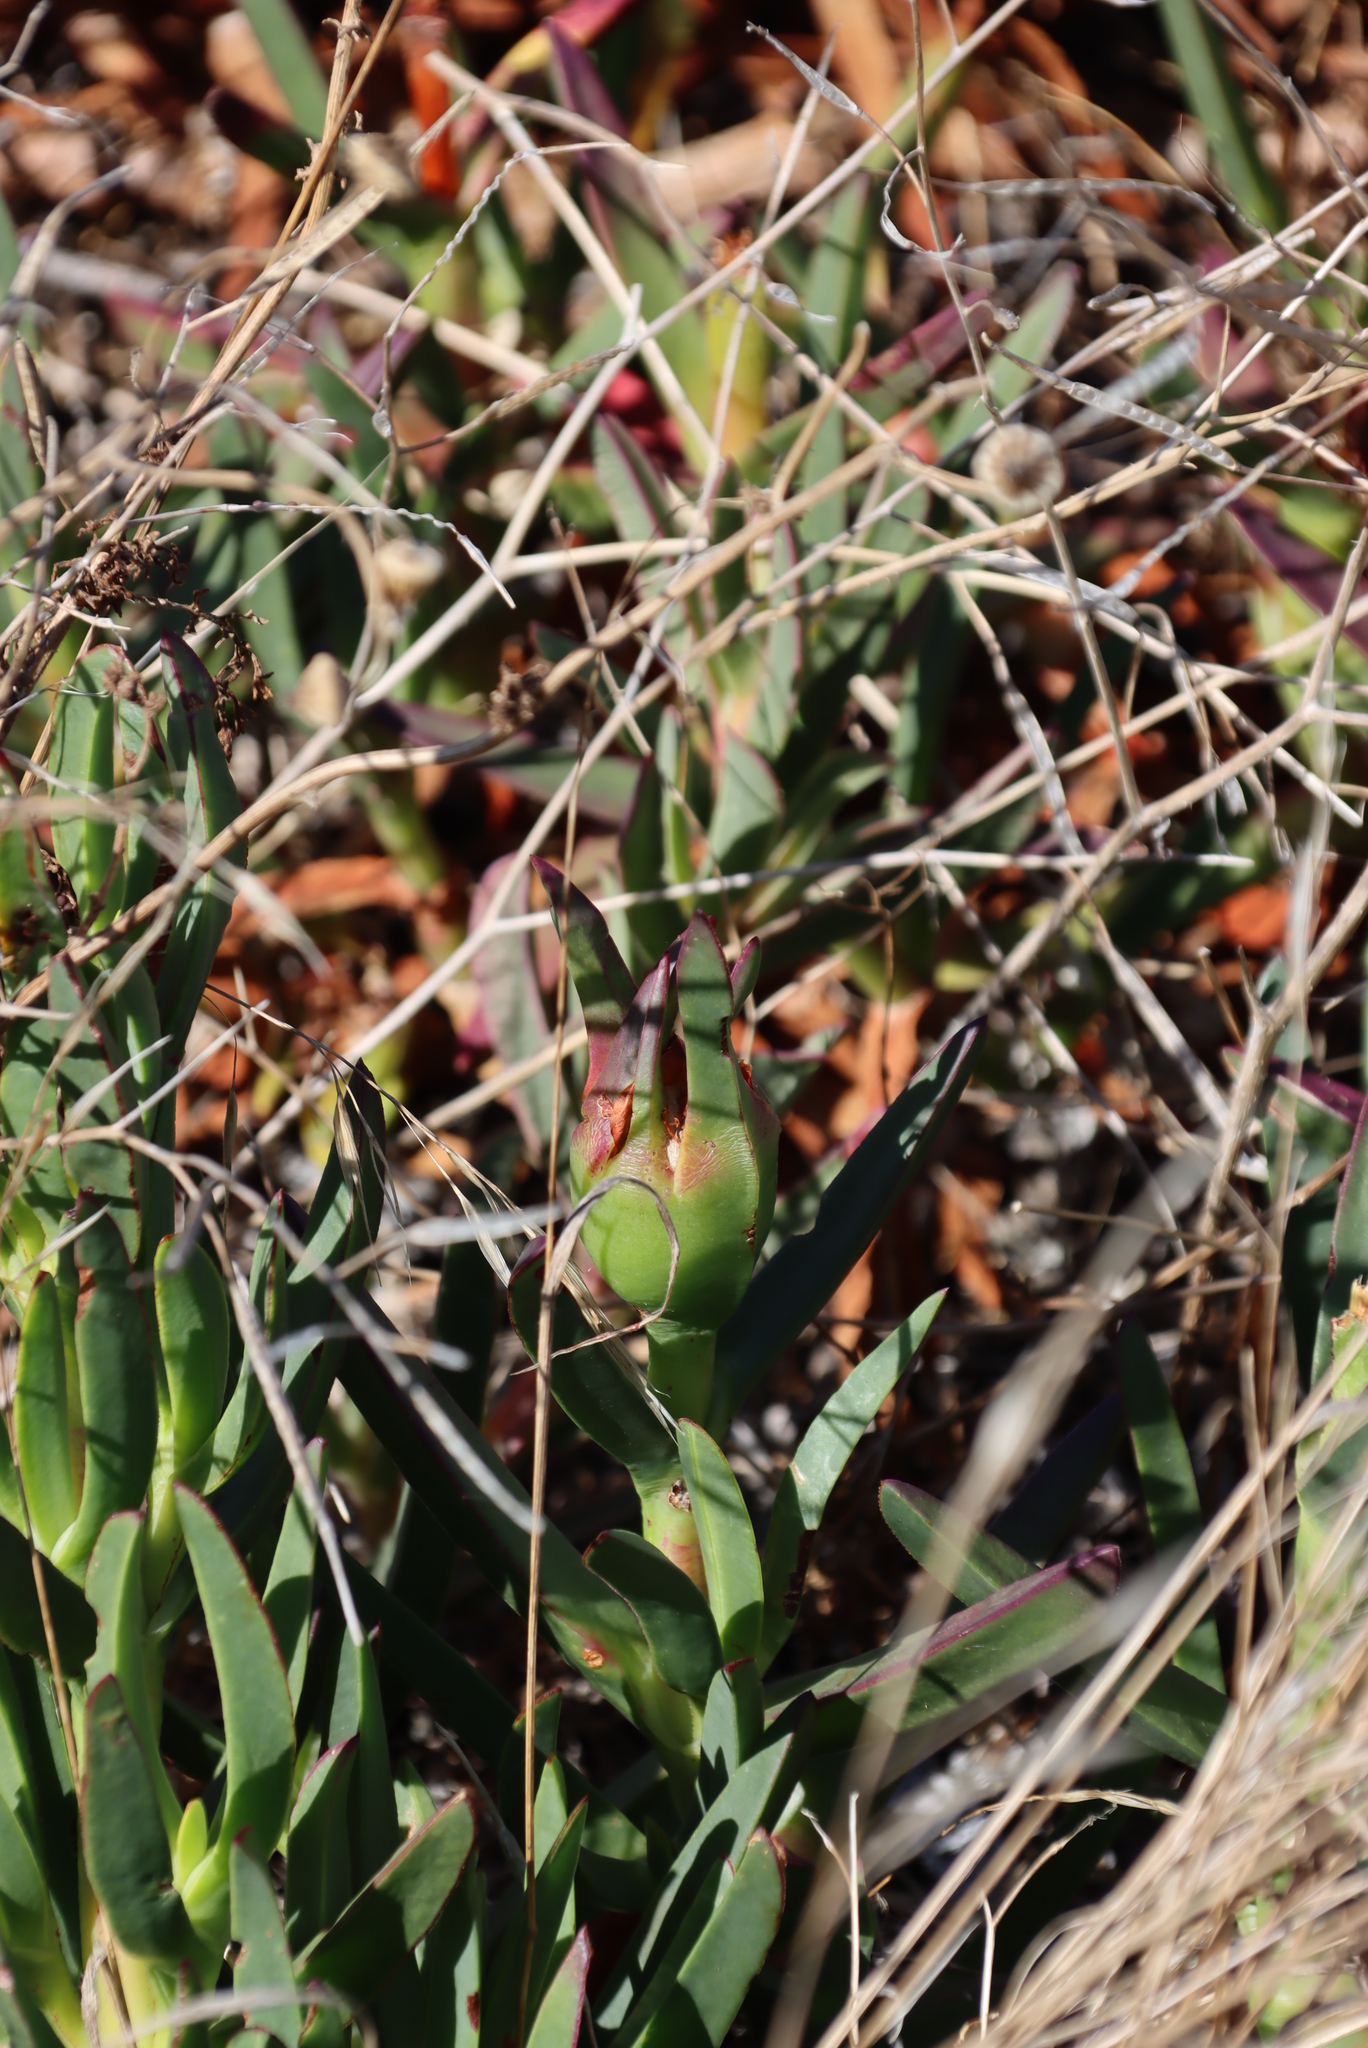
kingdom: Plantae
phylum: Tracheophyta
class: Magnoliopsida
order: Caryophyllales
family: Aizoaceae
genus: Carpobrotus
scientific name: Carpobrotus edulis
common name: Hottentot-fig
